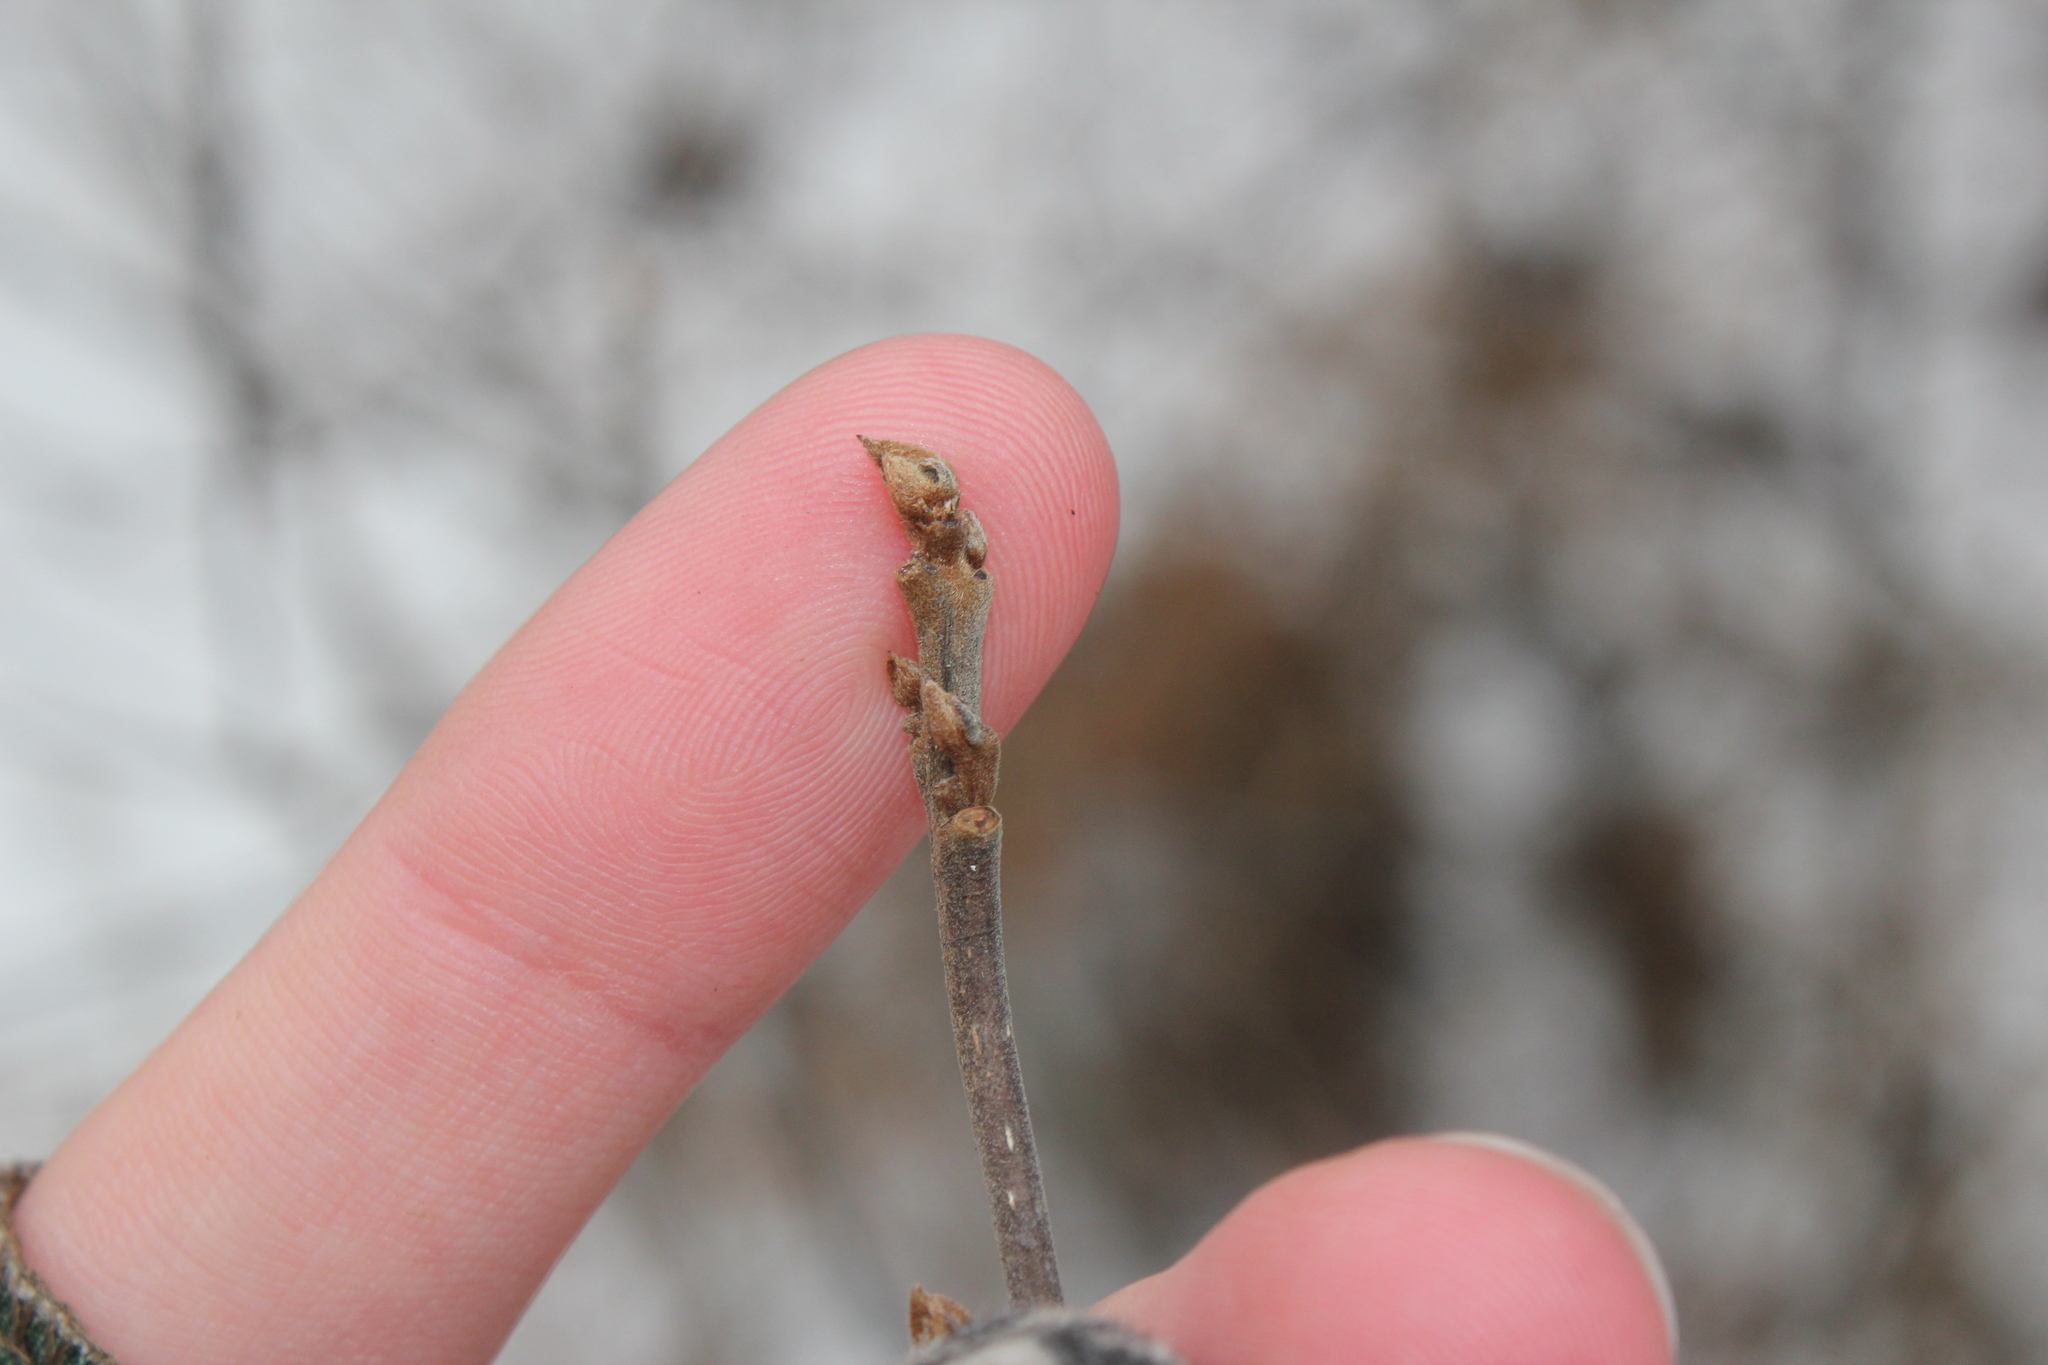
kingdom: Plantae
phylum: Tracheophyta
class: Magnoliopsida
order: Rosales
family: Rhamnaceae
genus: Frangula
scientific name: Frangula alnus
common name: Alder buckthorn
